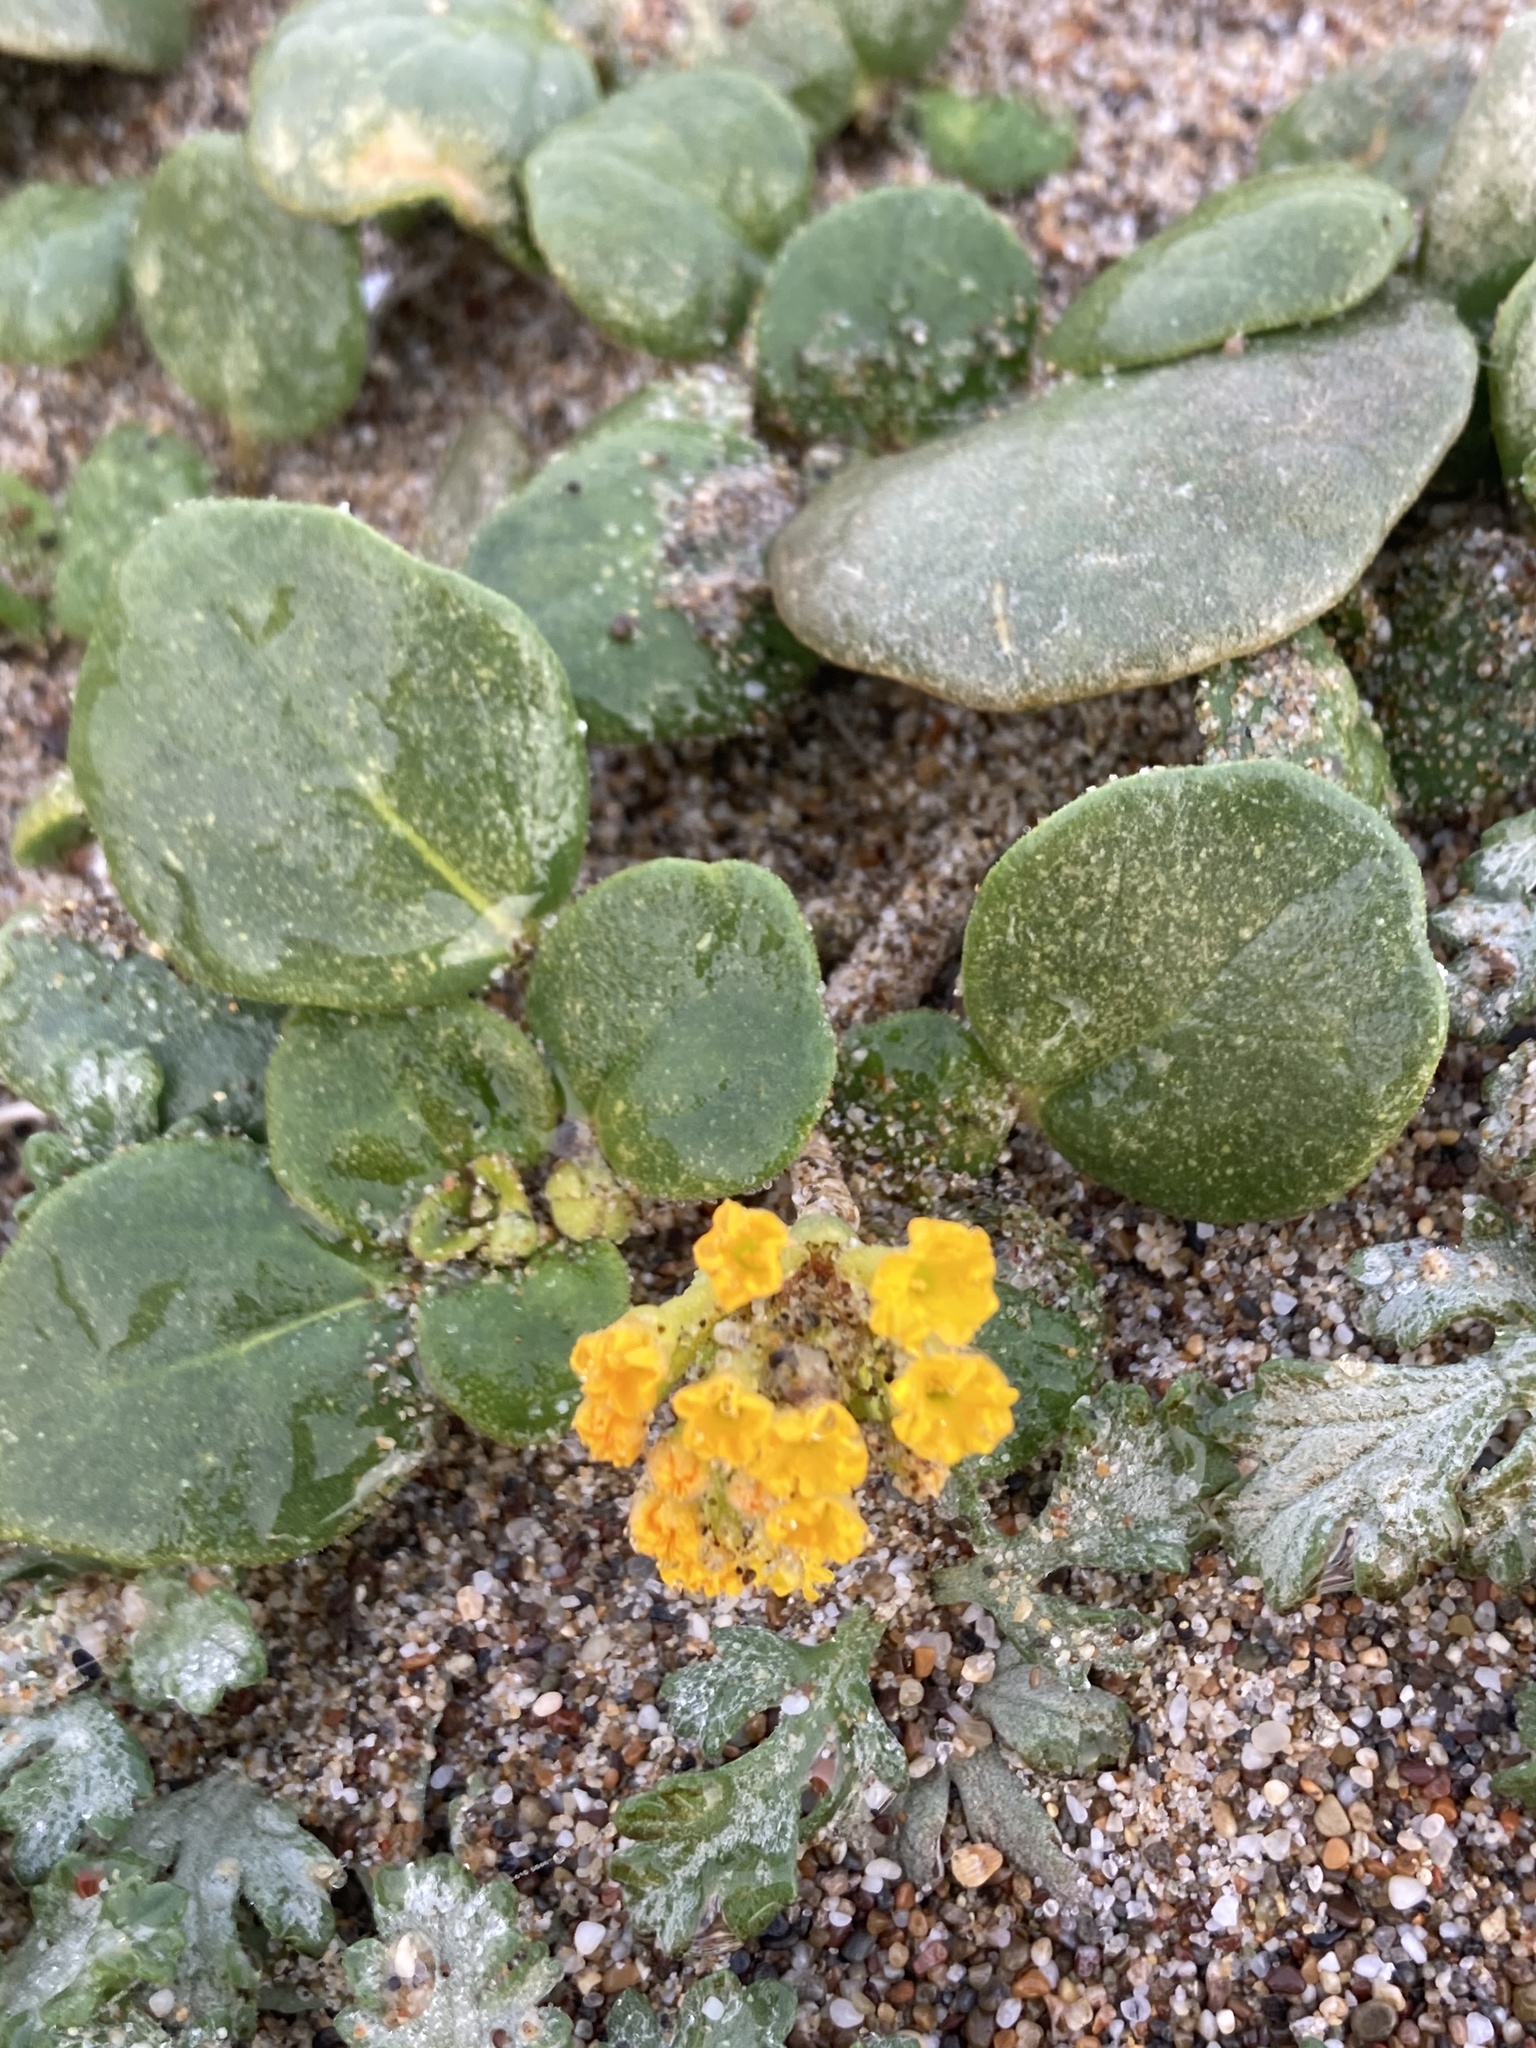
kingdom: Plantae
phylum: Tracheophyta
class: Magnoliopsida
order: Caryophyllales
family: Nyctaginaceae
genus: Abronia
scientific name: Abronia latifolia
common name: Yellow sand-verbena
